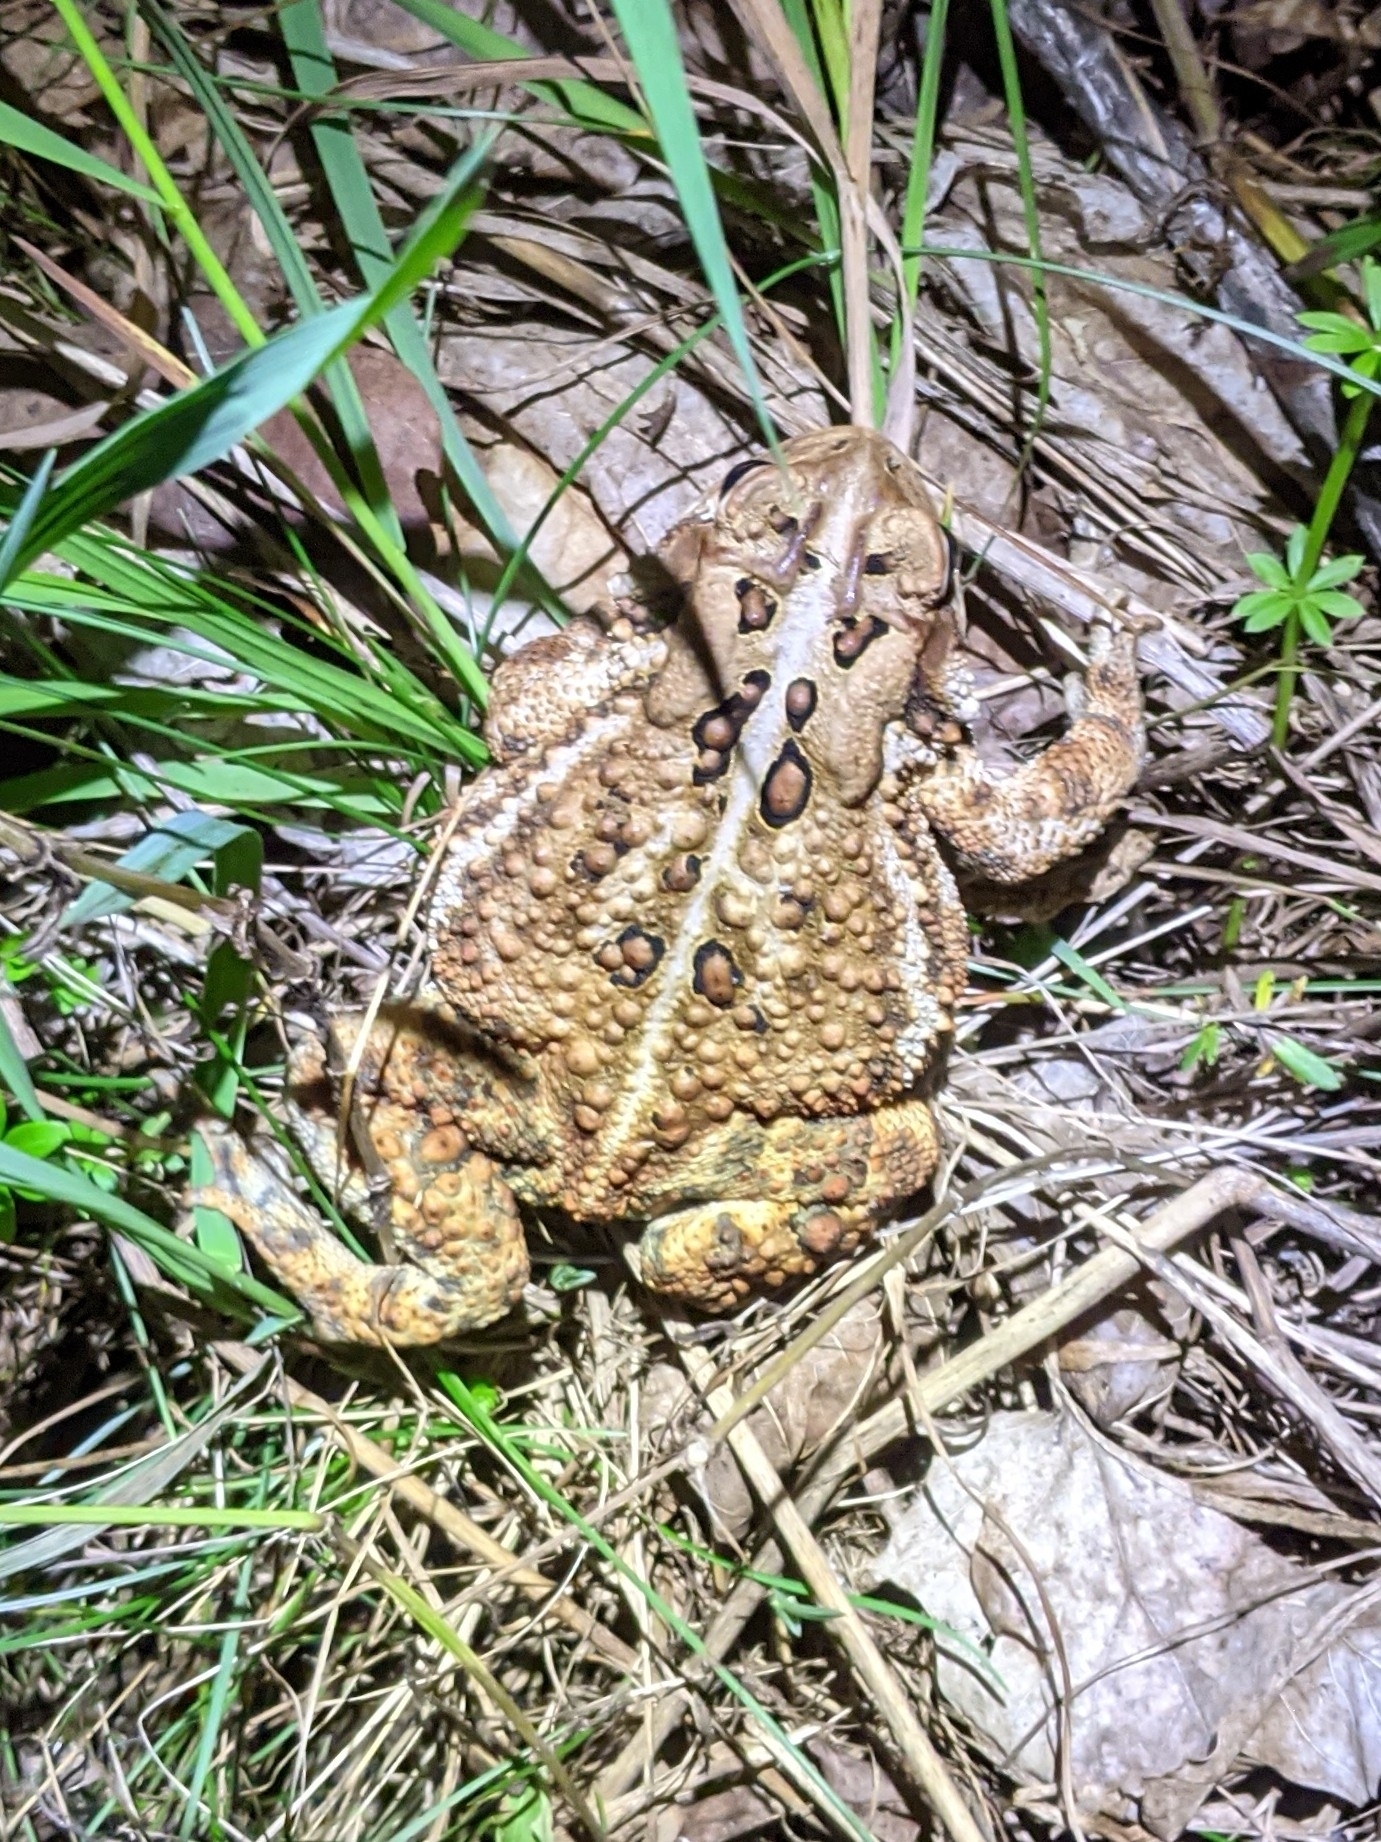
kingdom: Animalia
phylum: Chordata
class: Amphibia
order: Anura
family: Bufonidae
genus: Anaxyrus
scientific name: Anaxyrus americanus
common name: American toad
